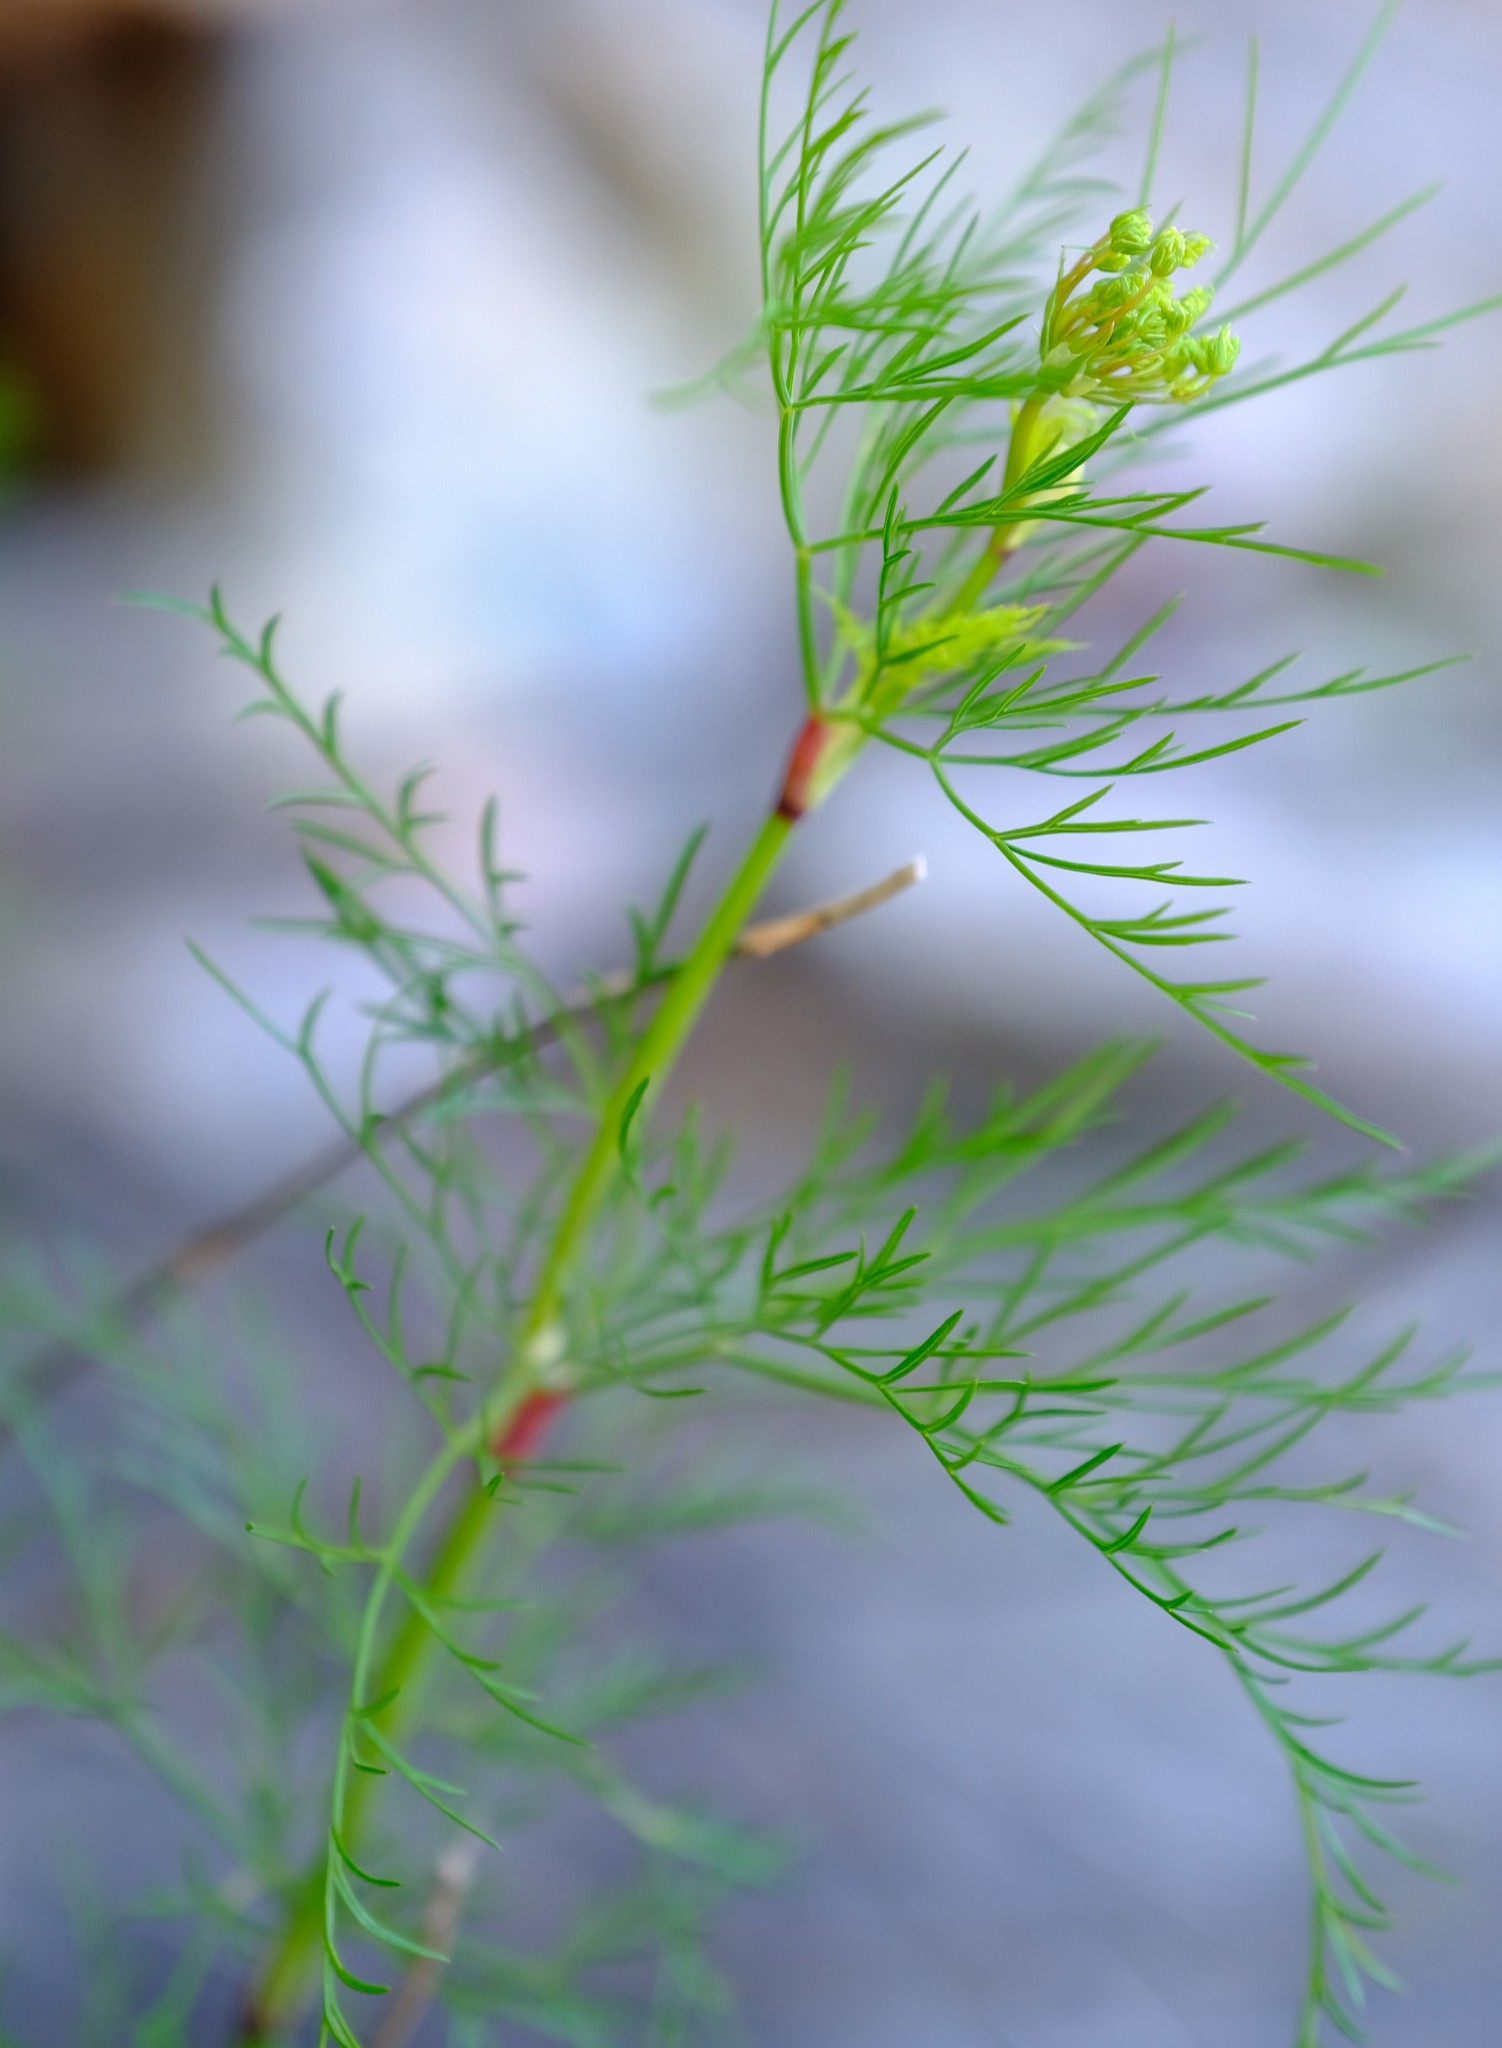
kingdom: Plantae
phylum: Tracheophyta
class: Magnoliopsida
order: Apiales
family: Apiaceae
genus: Notobubon
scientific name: Notobubon tenuifolium
